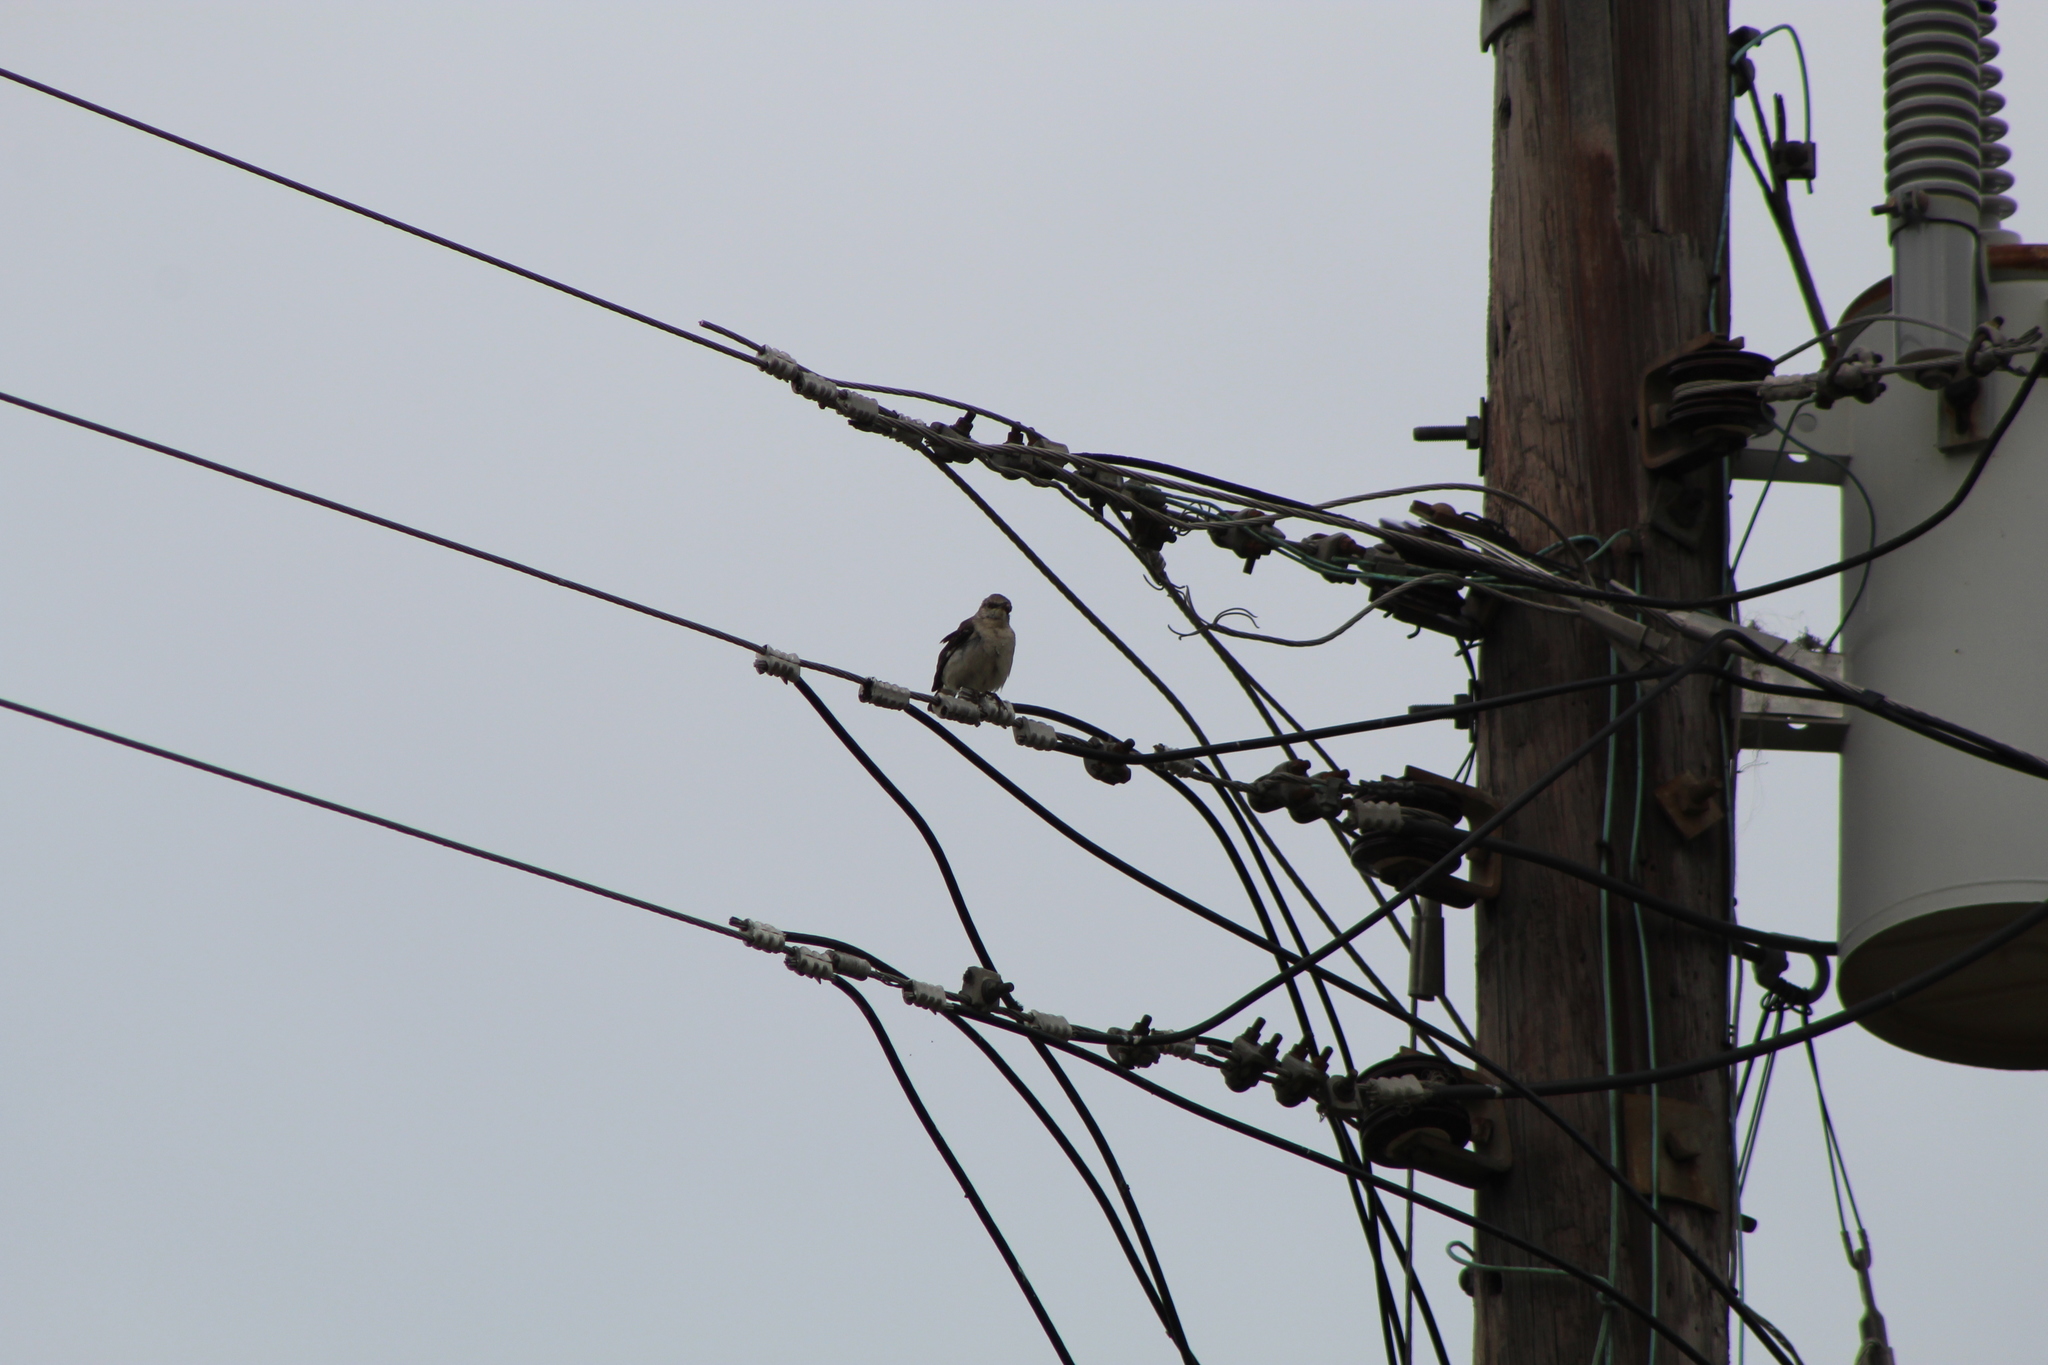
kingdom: Animalia
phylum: Chordata
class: Aves
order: Passeriformes
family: Mimidae
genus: Mimus
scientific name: Mimus polyglottos
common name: Northern mockingbird
